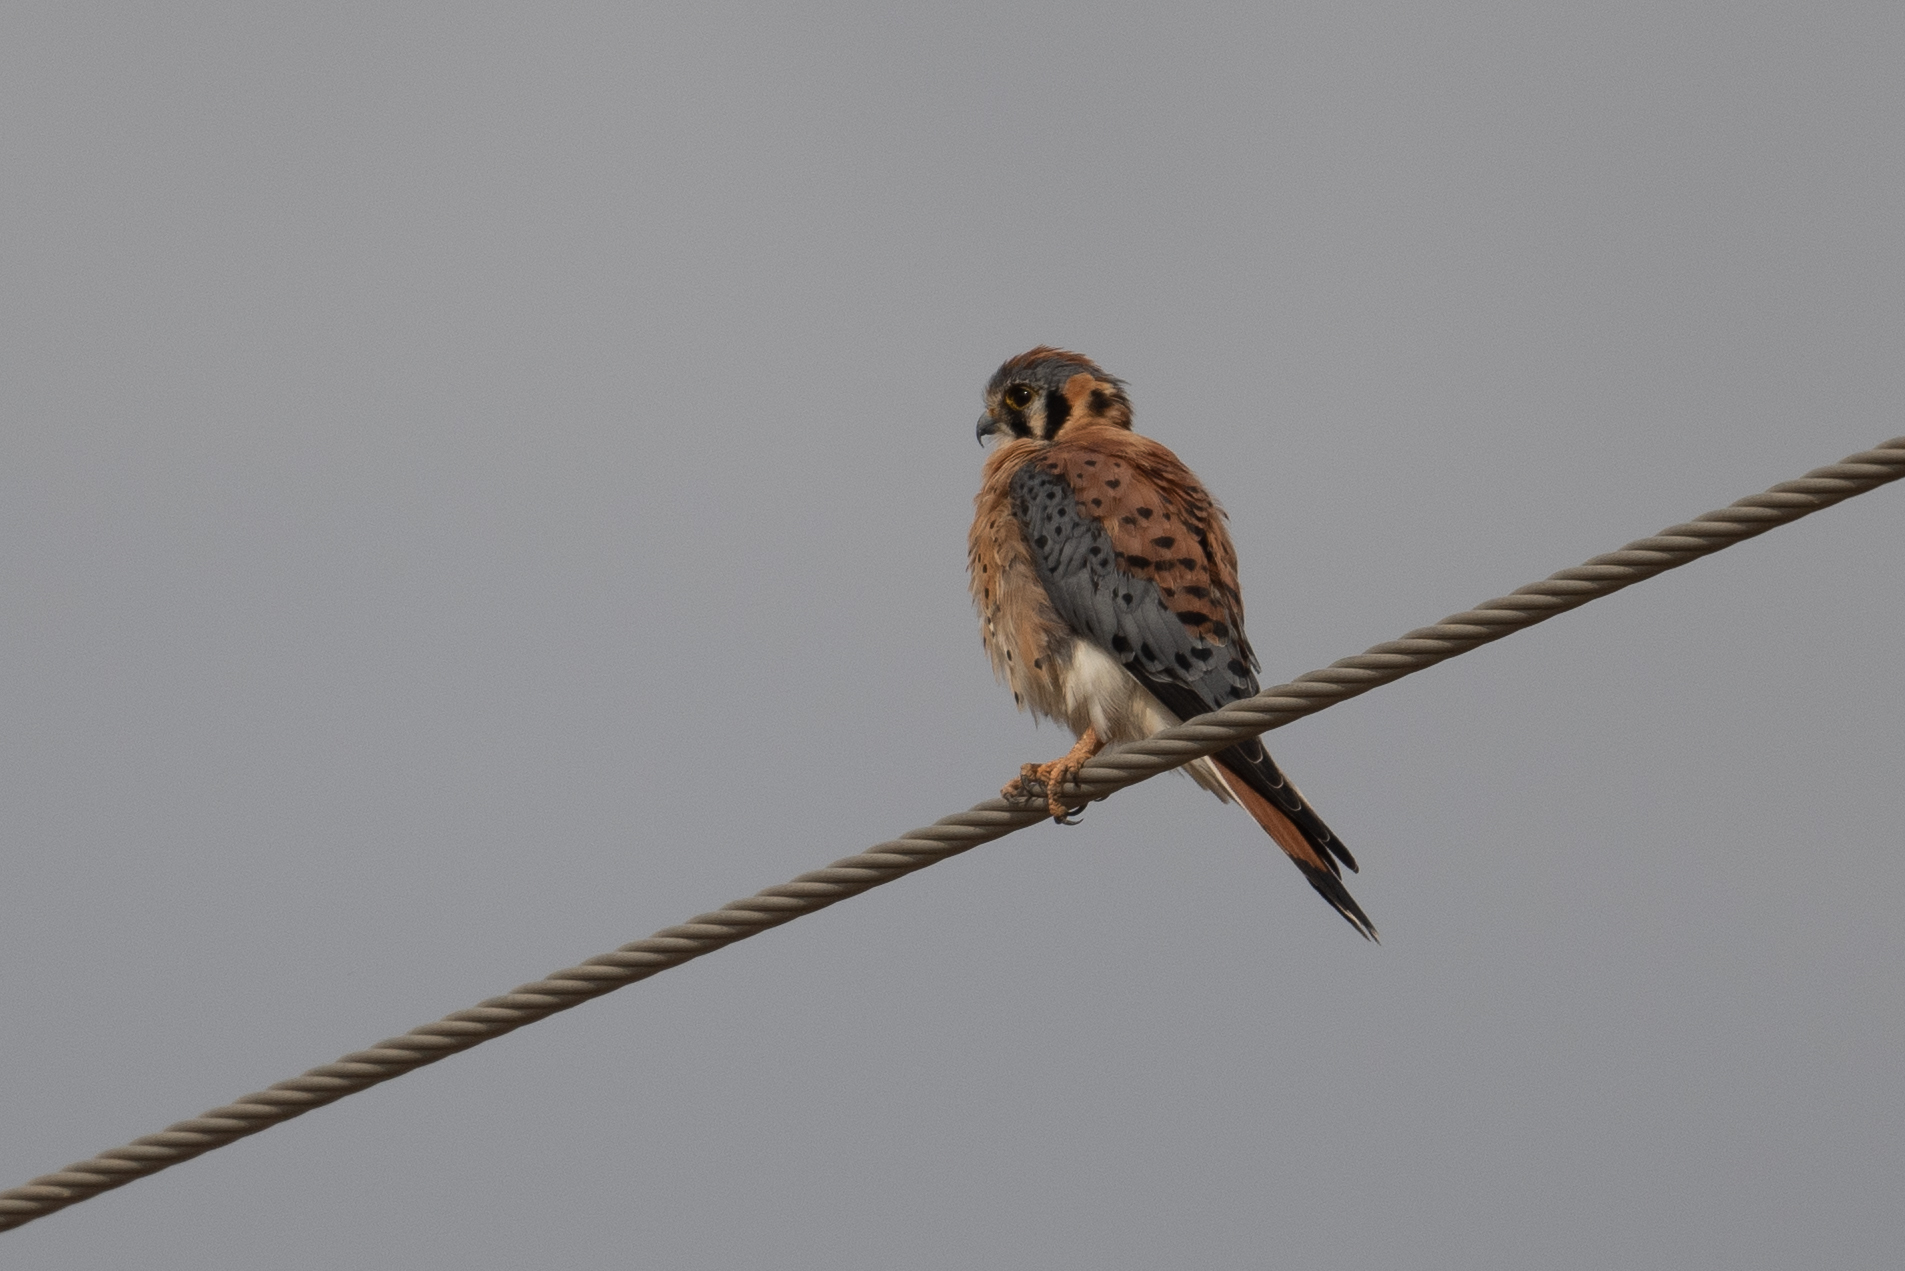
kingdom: Animalia
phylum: Chordata
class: Aves
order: Falconiformes
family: Falconidae
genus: Falco
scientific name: Falco sparverius
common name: American kestrel
